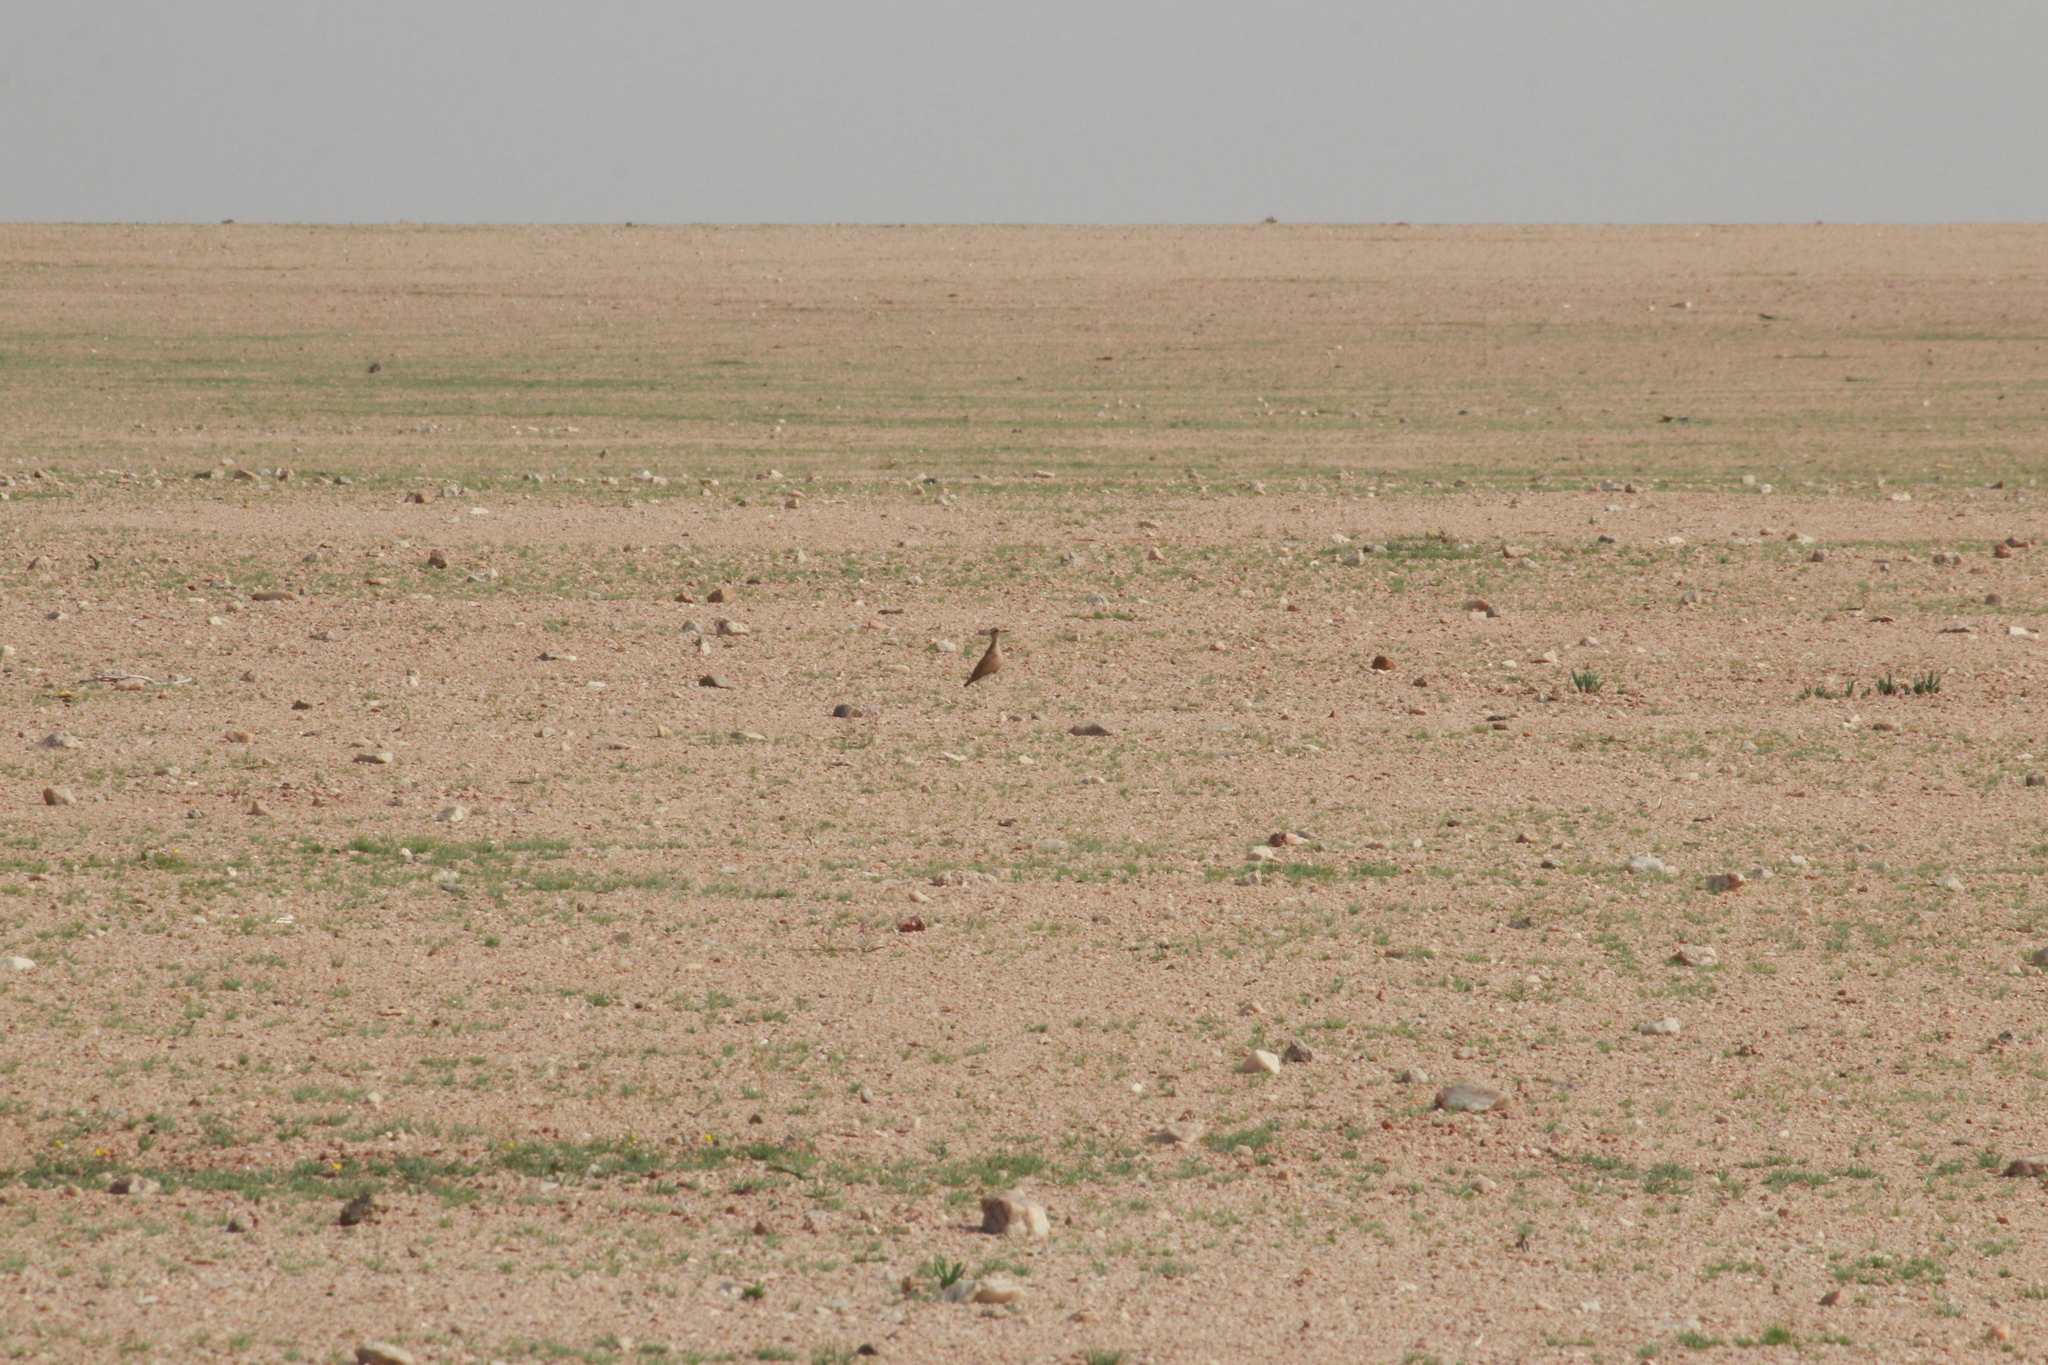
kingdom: Animalia
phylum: Chordata
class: Aves
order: Charadriiformes
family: Glareolidae
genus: Cursorius
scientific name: Cursorius rufus
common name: Burchell's courser
